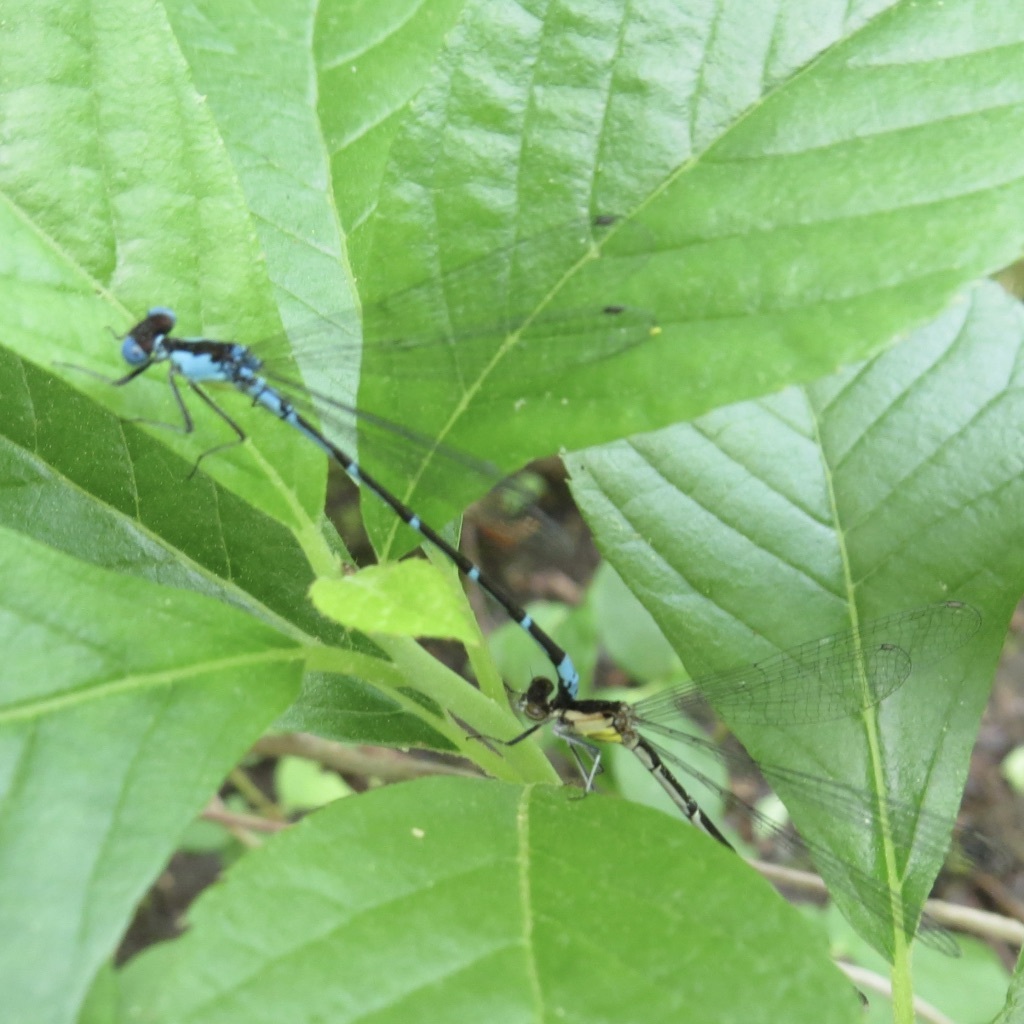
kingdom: Animalia
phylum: Arthropoda
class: Insecta
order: Odonata
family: Coenagrionidae
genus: Chromagrion
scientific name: Chromagrion conditum
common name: Aurora damsel
